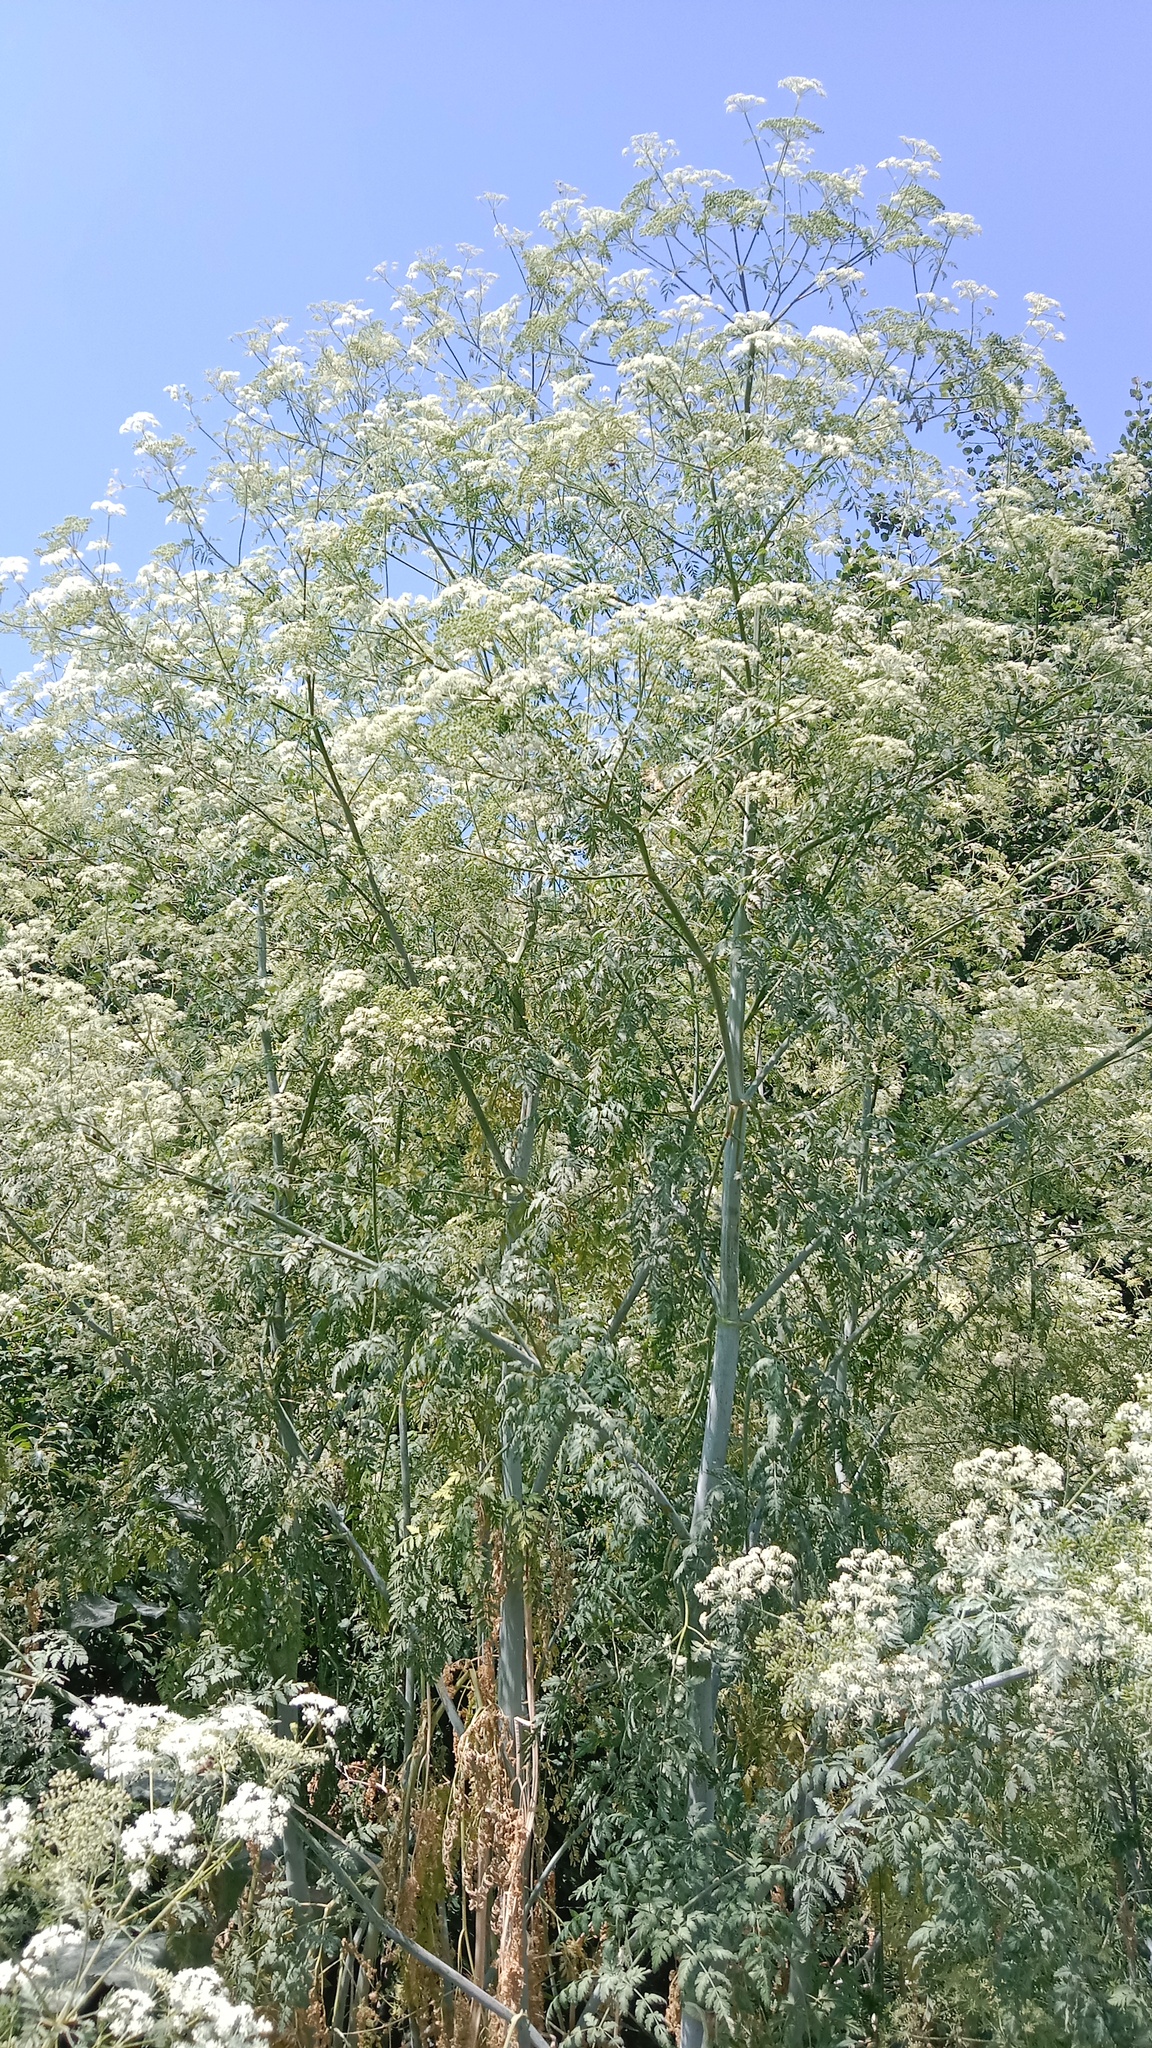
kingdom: Plantae
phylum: Tracheophyta
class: Magnoliopsida
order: Apiales
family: Apiaceae
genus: Conium
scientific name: Conium maculatum
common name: Hemlock
